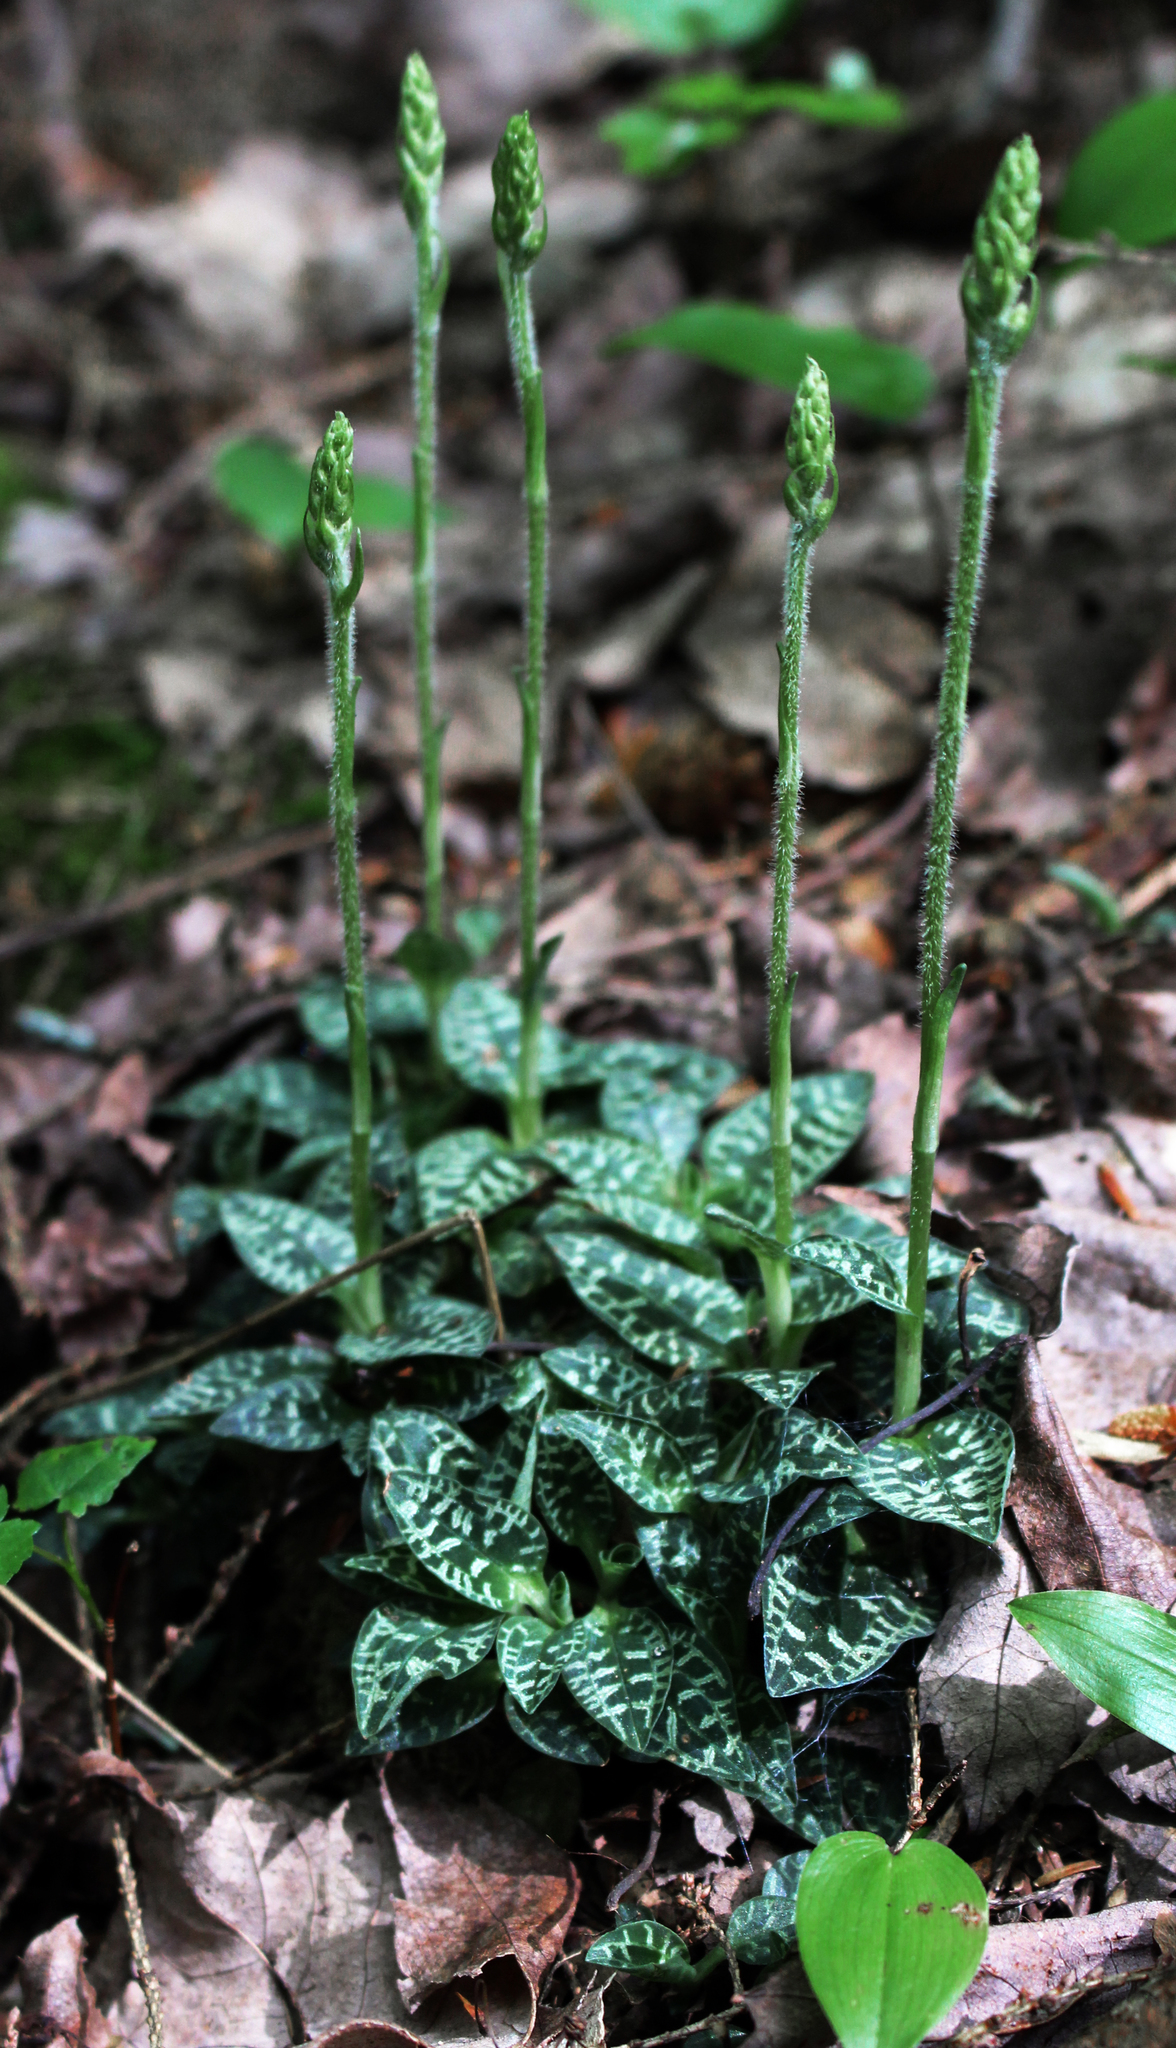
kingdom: Plantae
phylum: Tracheophyta
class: Liliopsida
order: Asparagales
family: Orchidaceae
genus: Goodyera
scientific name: Goodyera repens
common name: Creeping lady's-tresses
